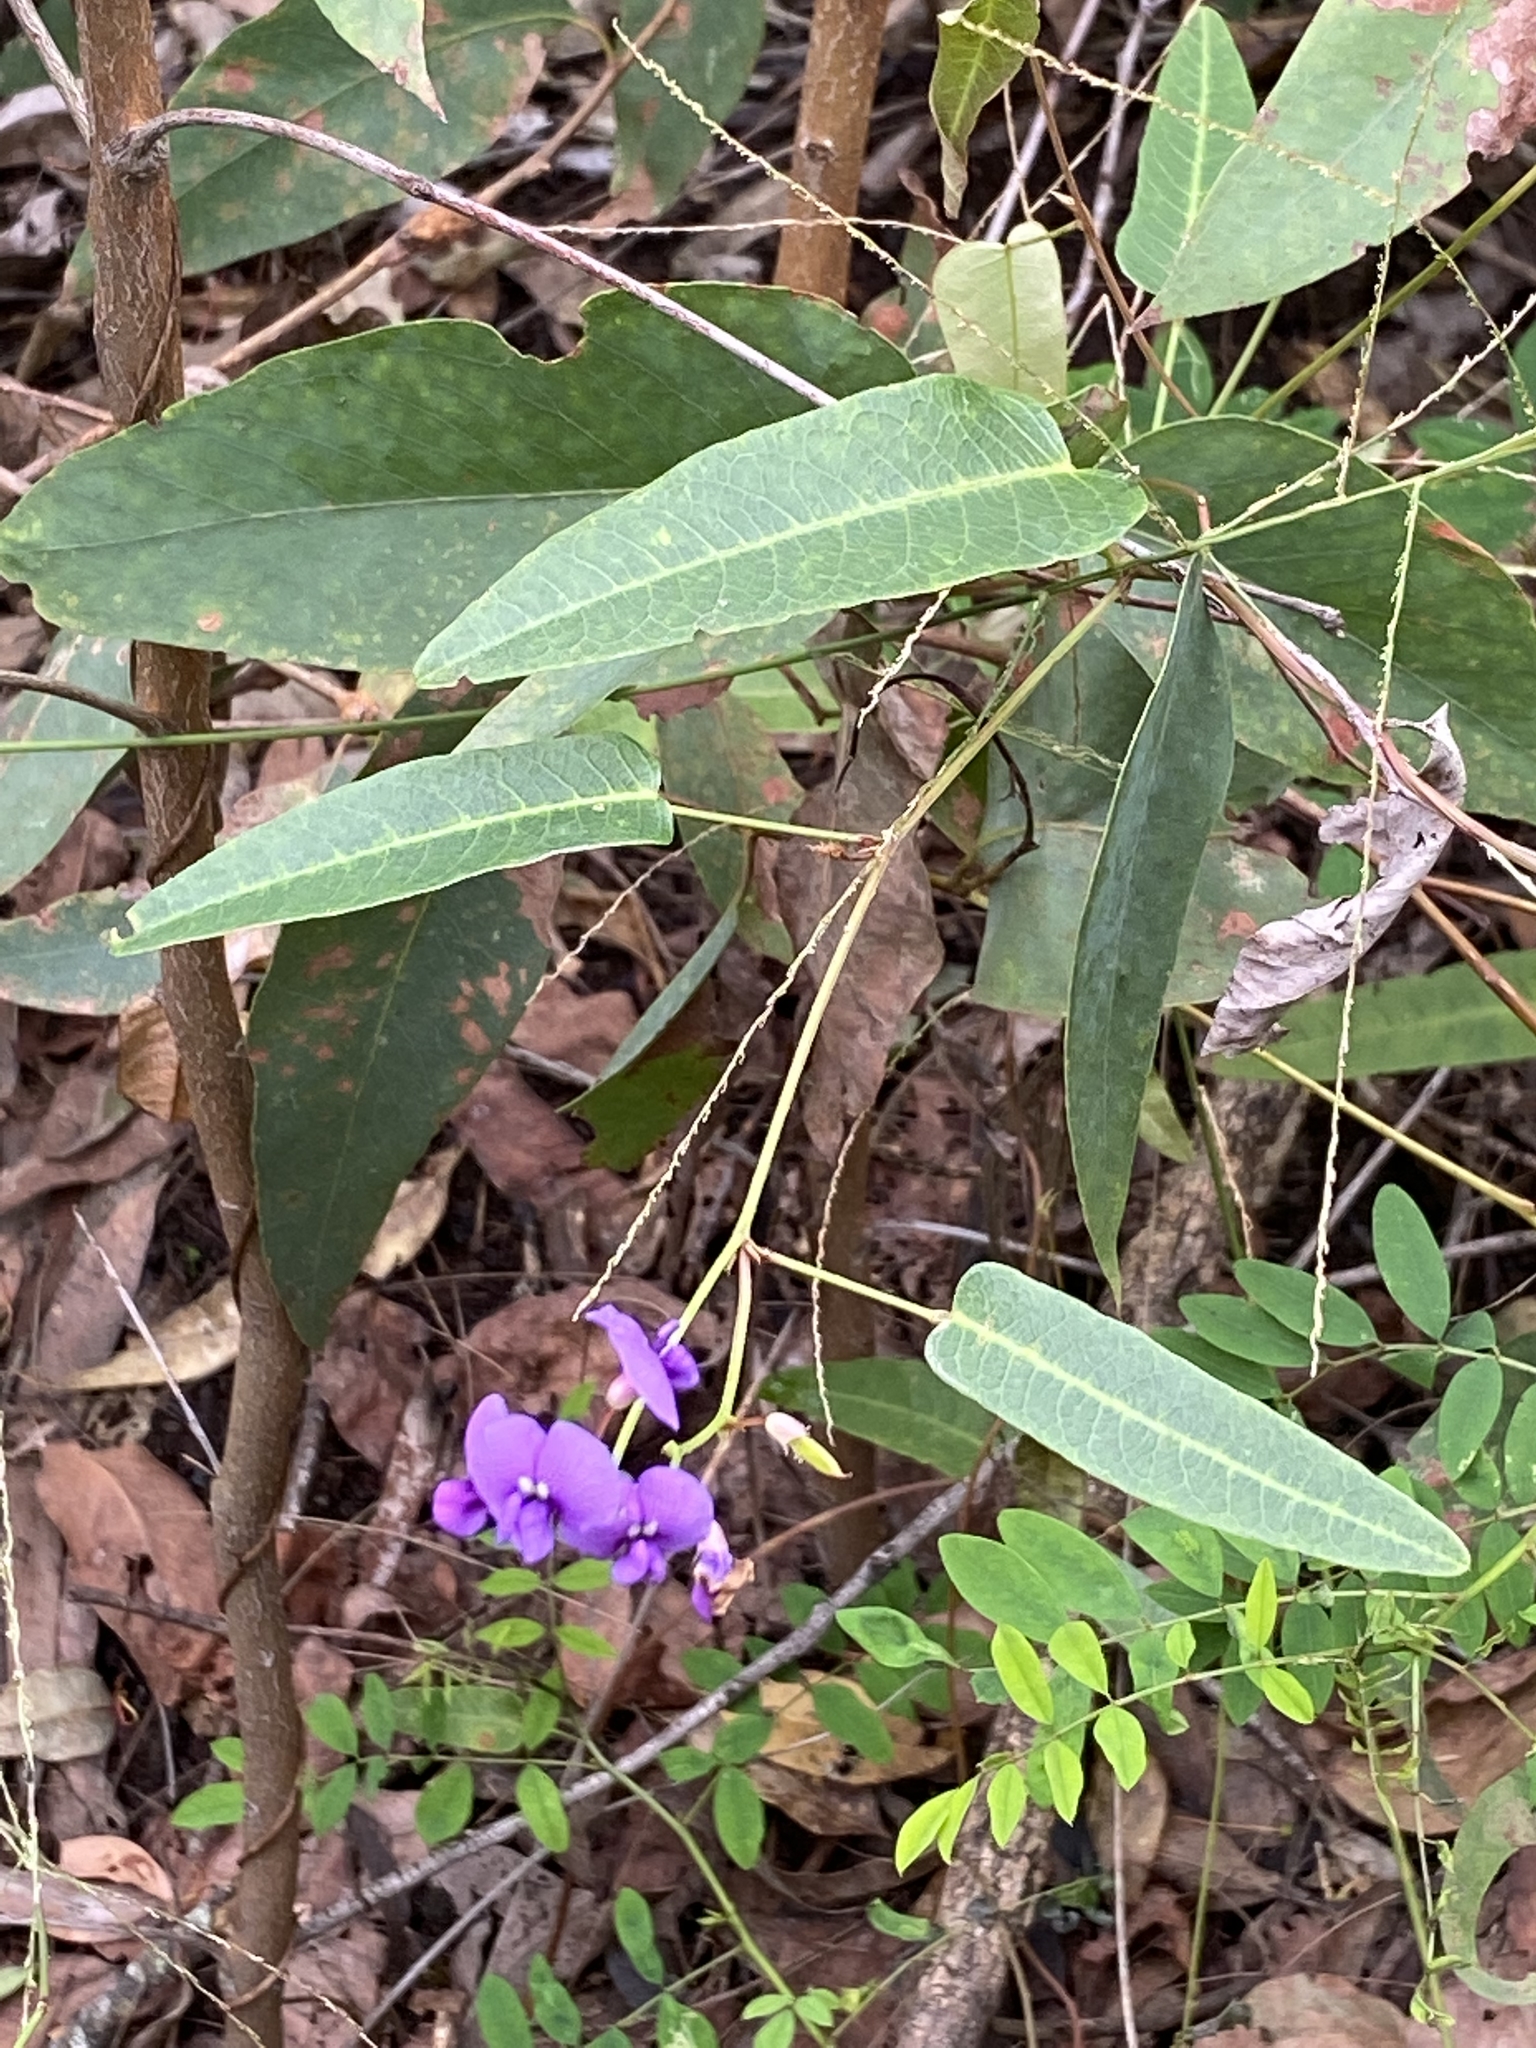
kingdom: Plantae
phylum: Tracheophyta
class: Magnoliopsida
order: Fabales
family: Fabaceae
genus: Hardenbergia
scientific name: Hardenbergia violacea
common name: Coral-pea
